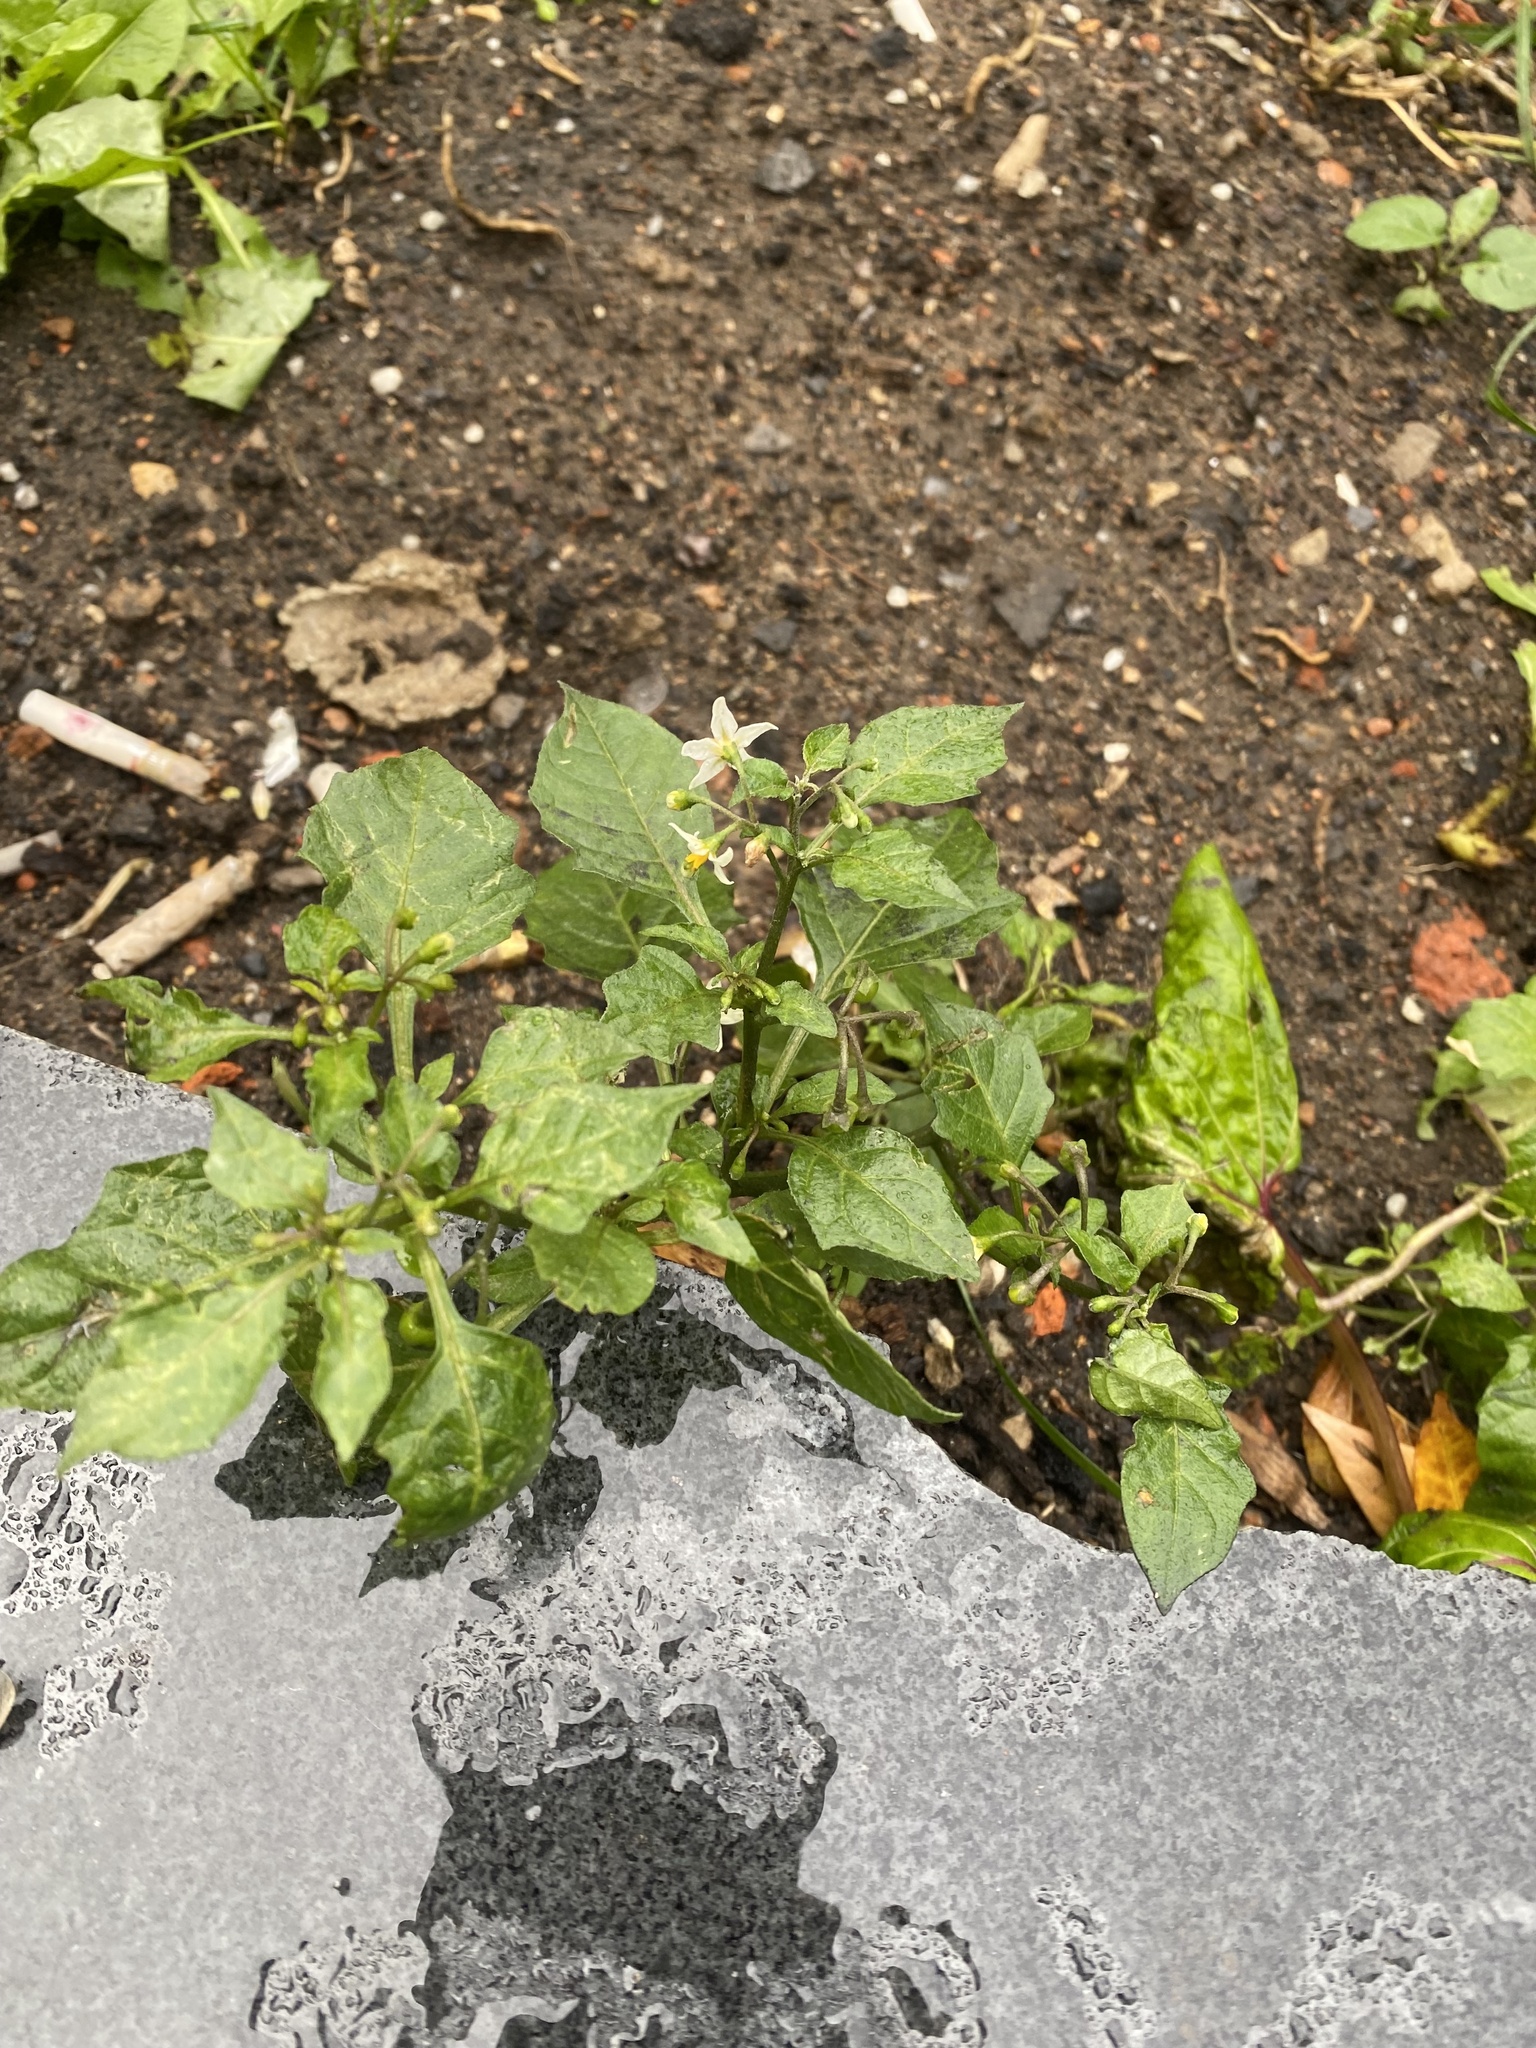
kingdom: Plantae
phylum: Tracheophyta
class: Magnoliopsida
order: Solanales
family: Solanaceae
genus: Solanum
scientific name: Solanum nigrum
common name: Black nightshade
